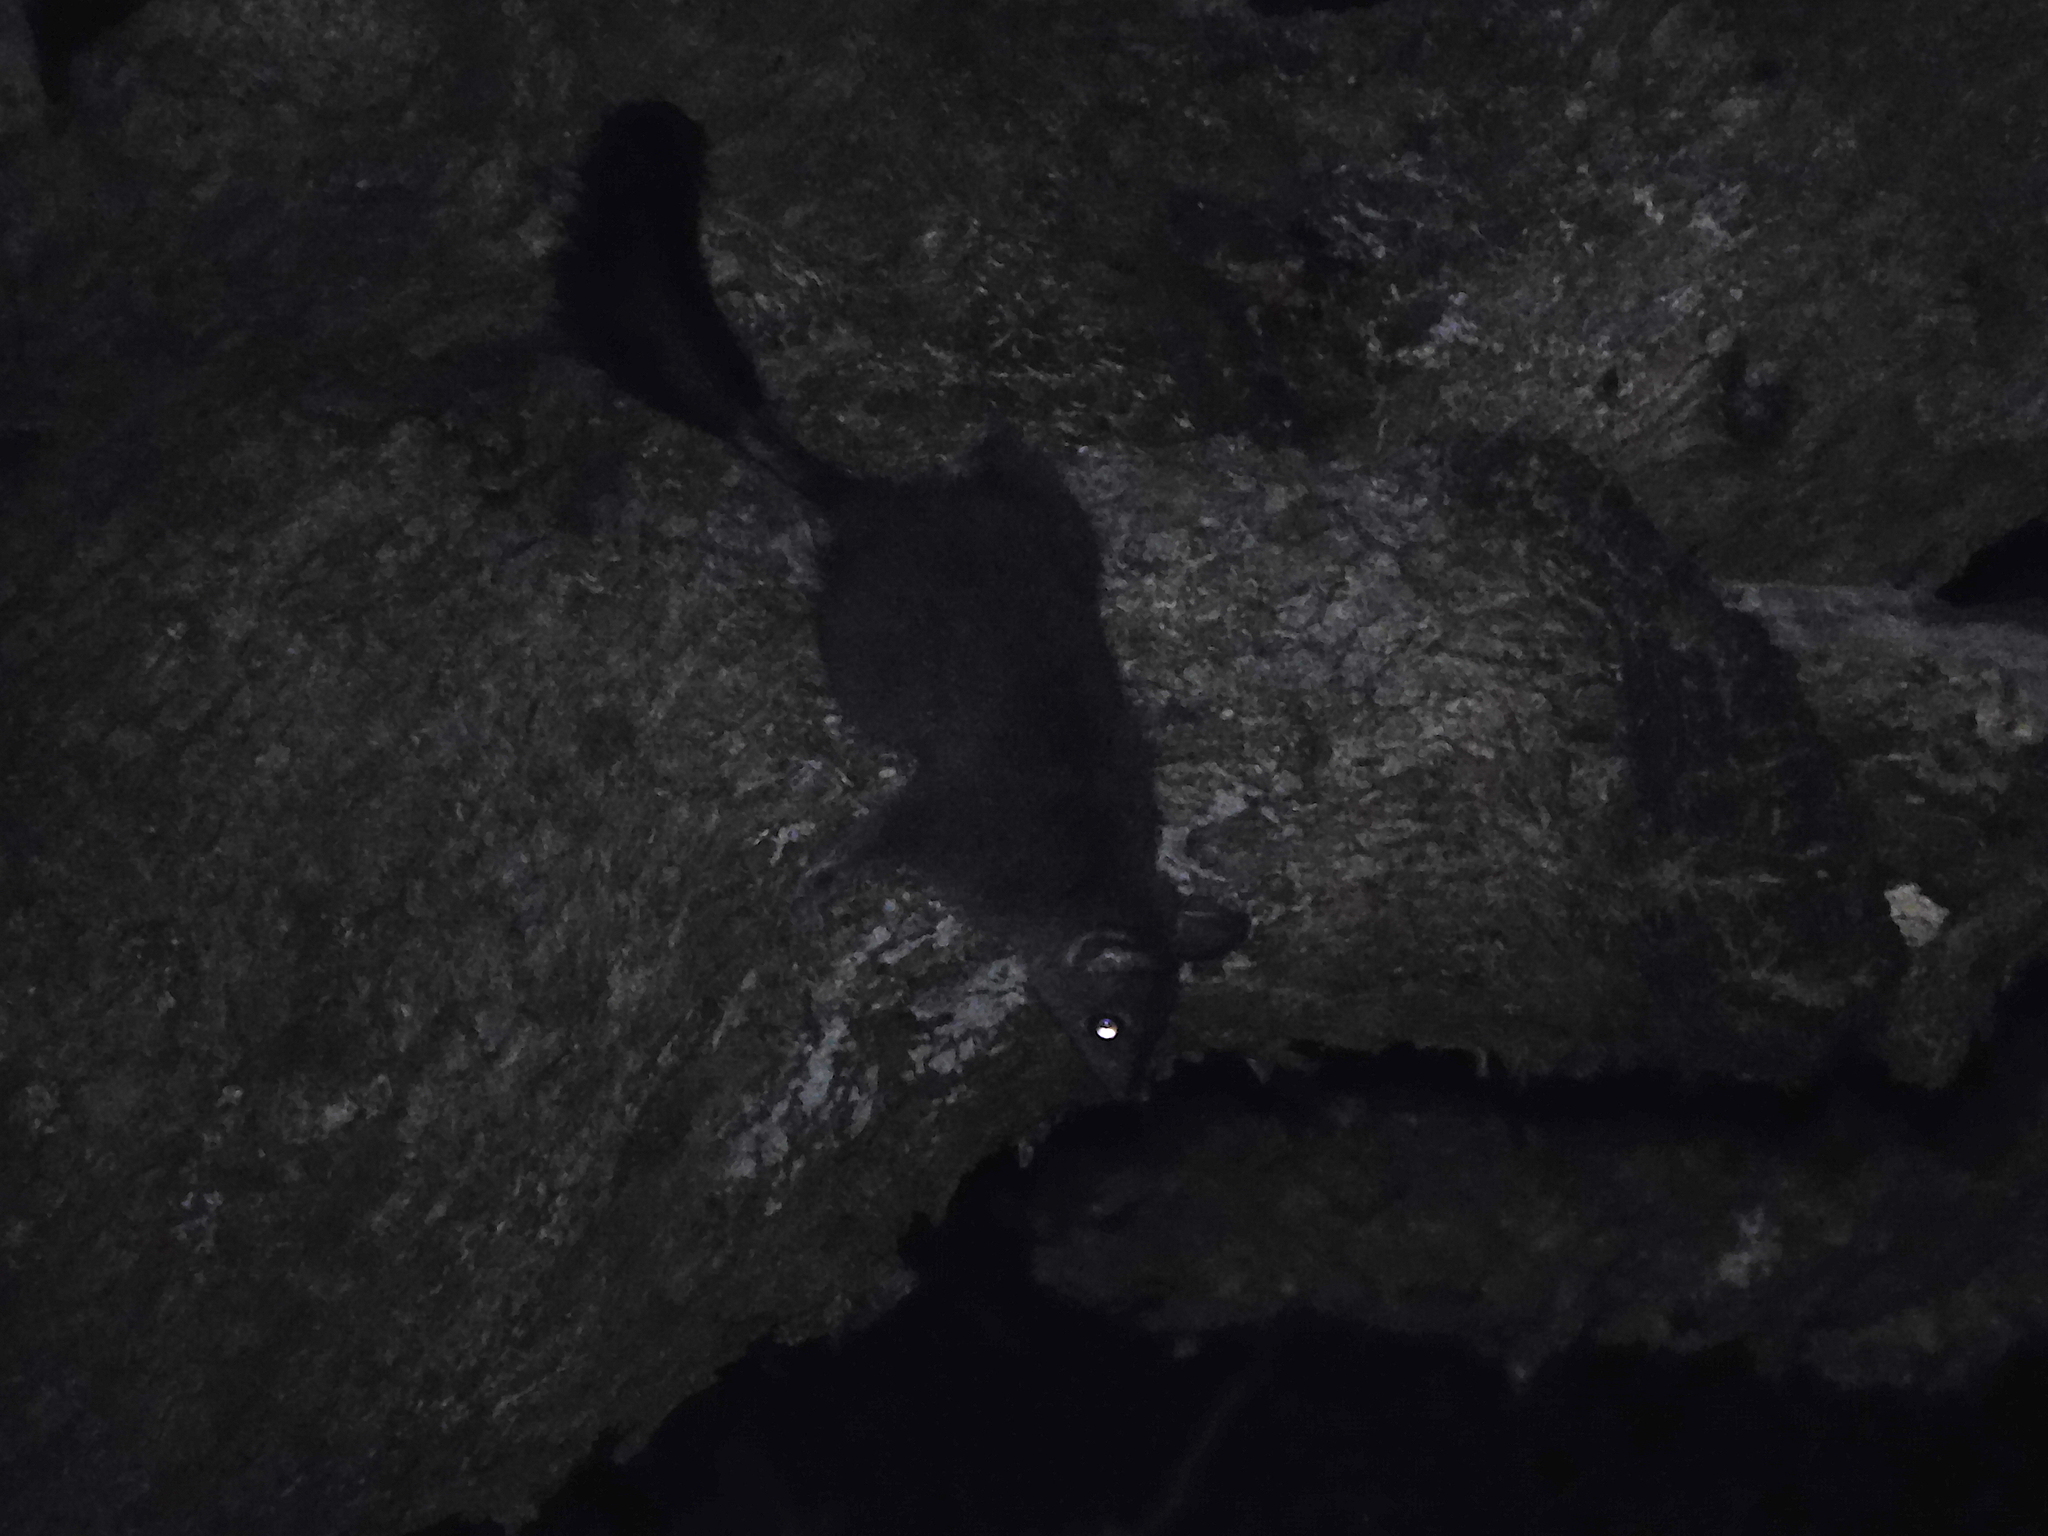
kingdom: Animalia
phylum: Chordata
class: Mammalia
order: Dasyuromorphia
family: Dasyuridae
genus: Phascogale
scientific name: Phascogale tapoatafa
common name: Brush-tailed phascogale
